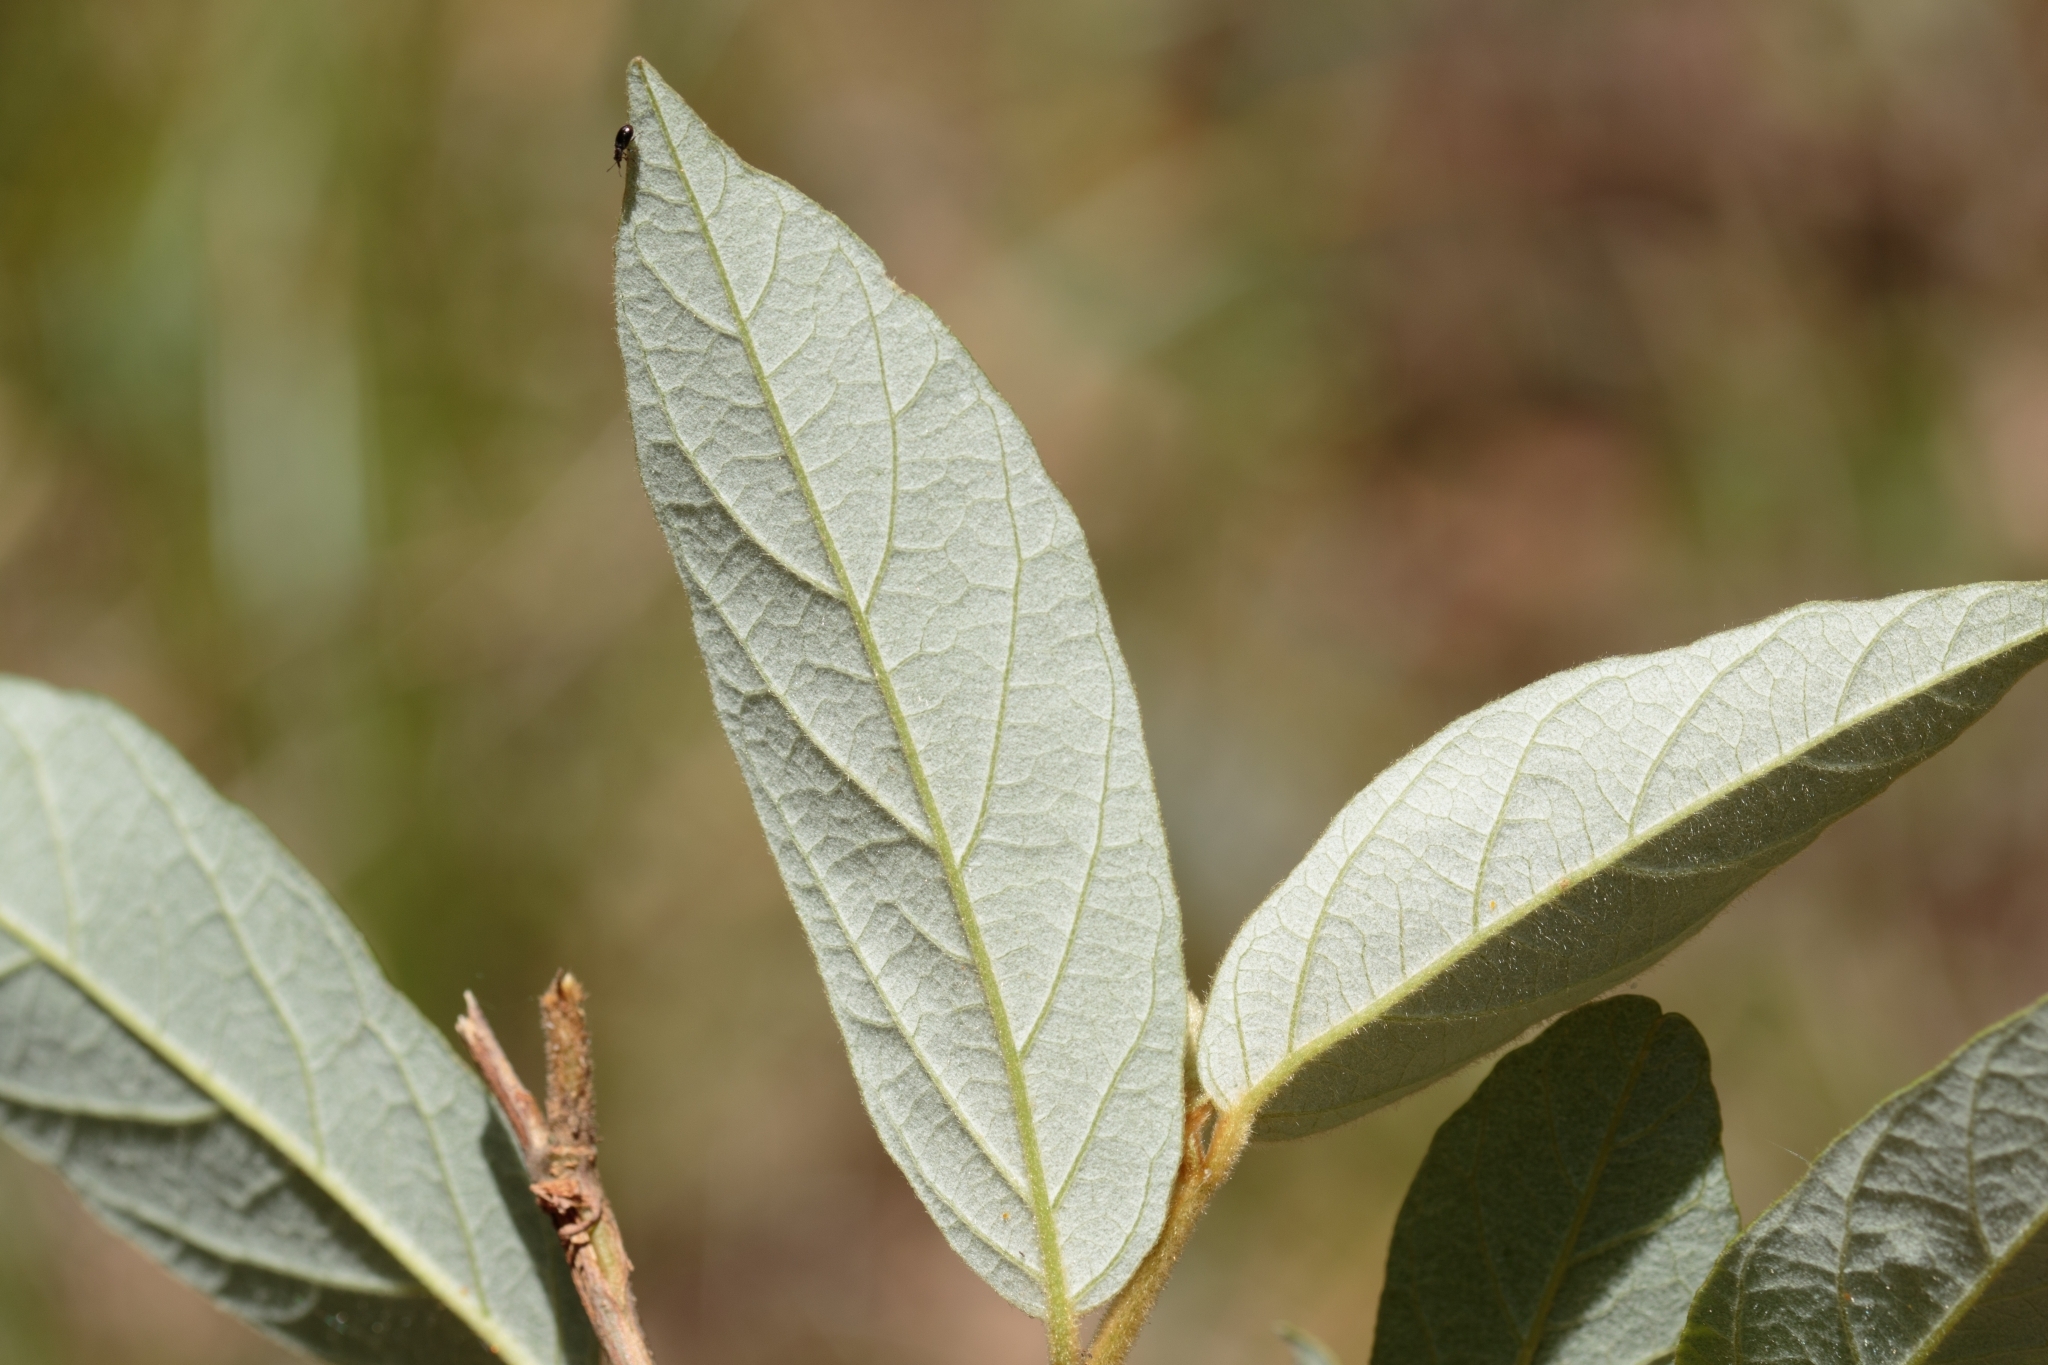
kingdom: Plantae
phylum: Tracheophyta
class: Magnoliopsida
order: Rosales
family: Rhamnaceae
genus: Alphitonia
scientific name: Alphitonia excelsa
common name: Red ash
